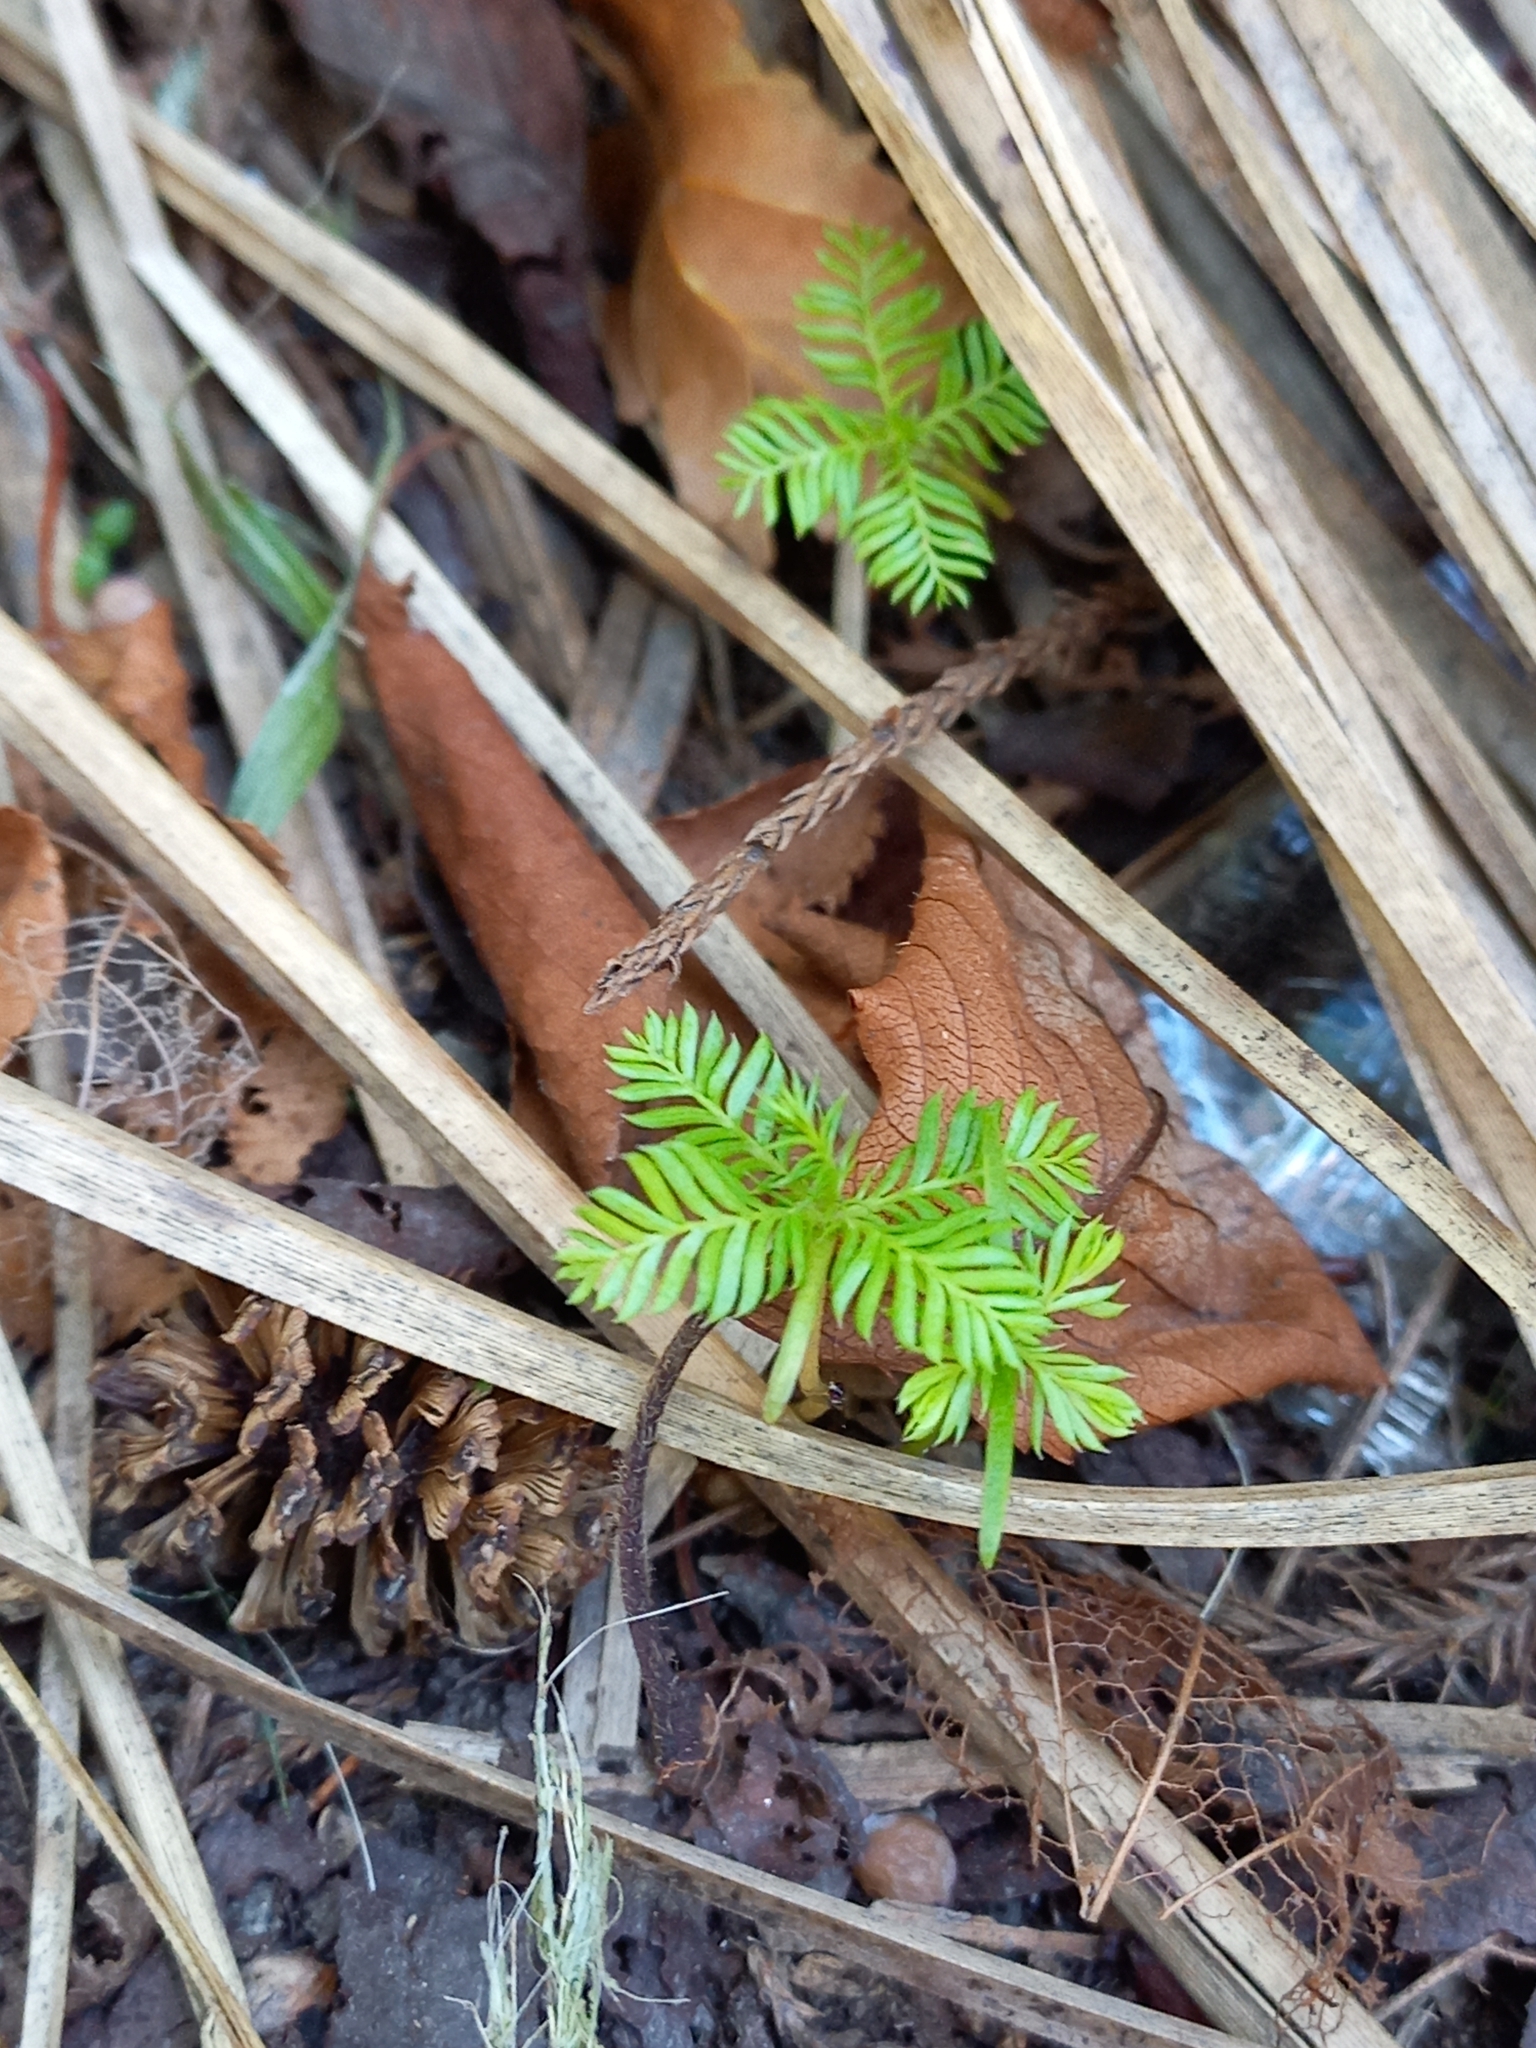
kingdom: Plantae
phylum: Tracheophyta
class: Pinopsida
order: Pinales
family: Podocarpaceae
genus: Dacrycarpus
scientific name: Dacrycarpus dacrydioides
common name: White pine
